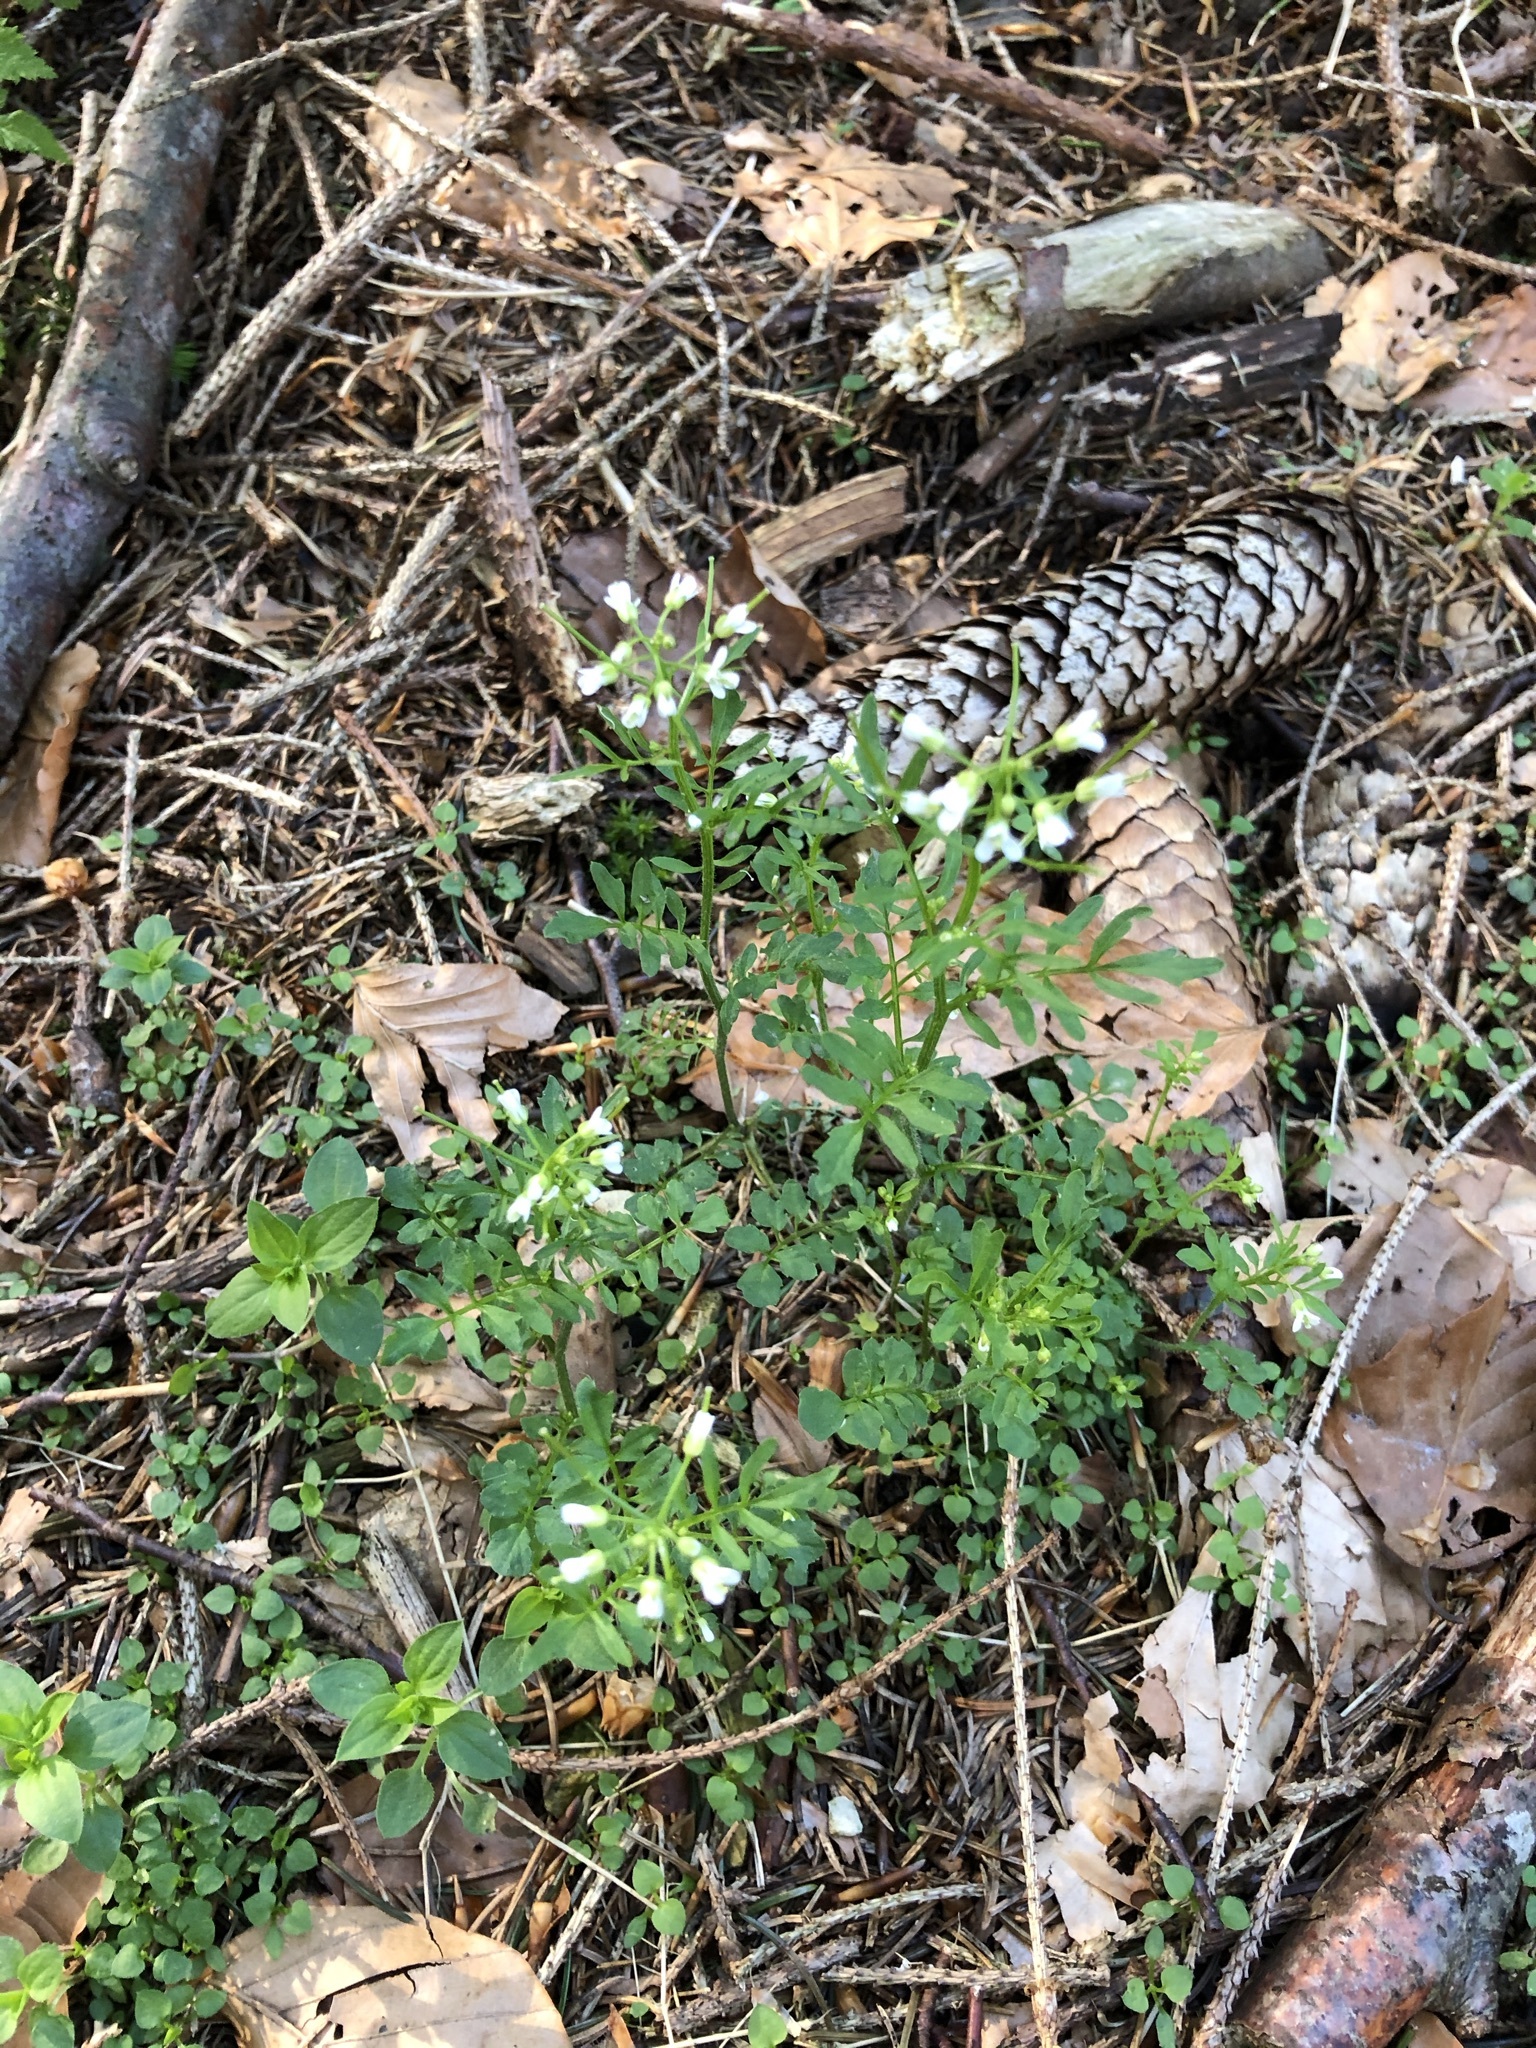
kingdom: Plantae
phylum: Tracheophyta
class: Magnoliopsida
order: Brassicales
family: Brassicaceae
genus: Cardamine
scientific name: Cardamine flexuosa
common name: Woodland bittercress
